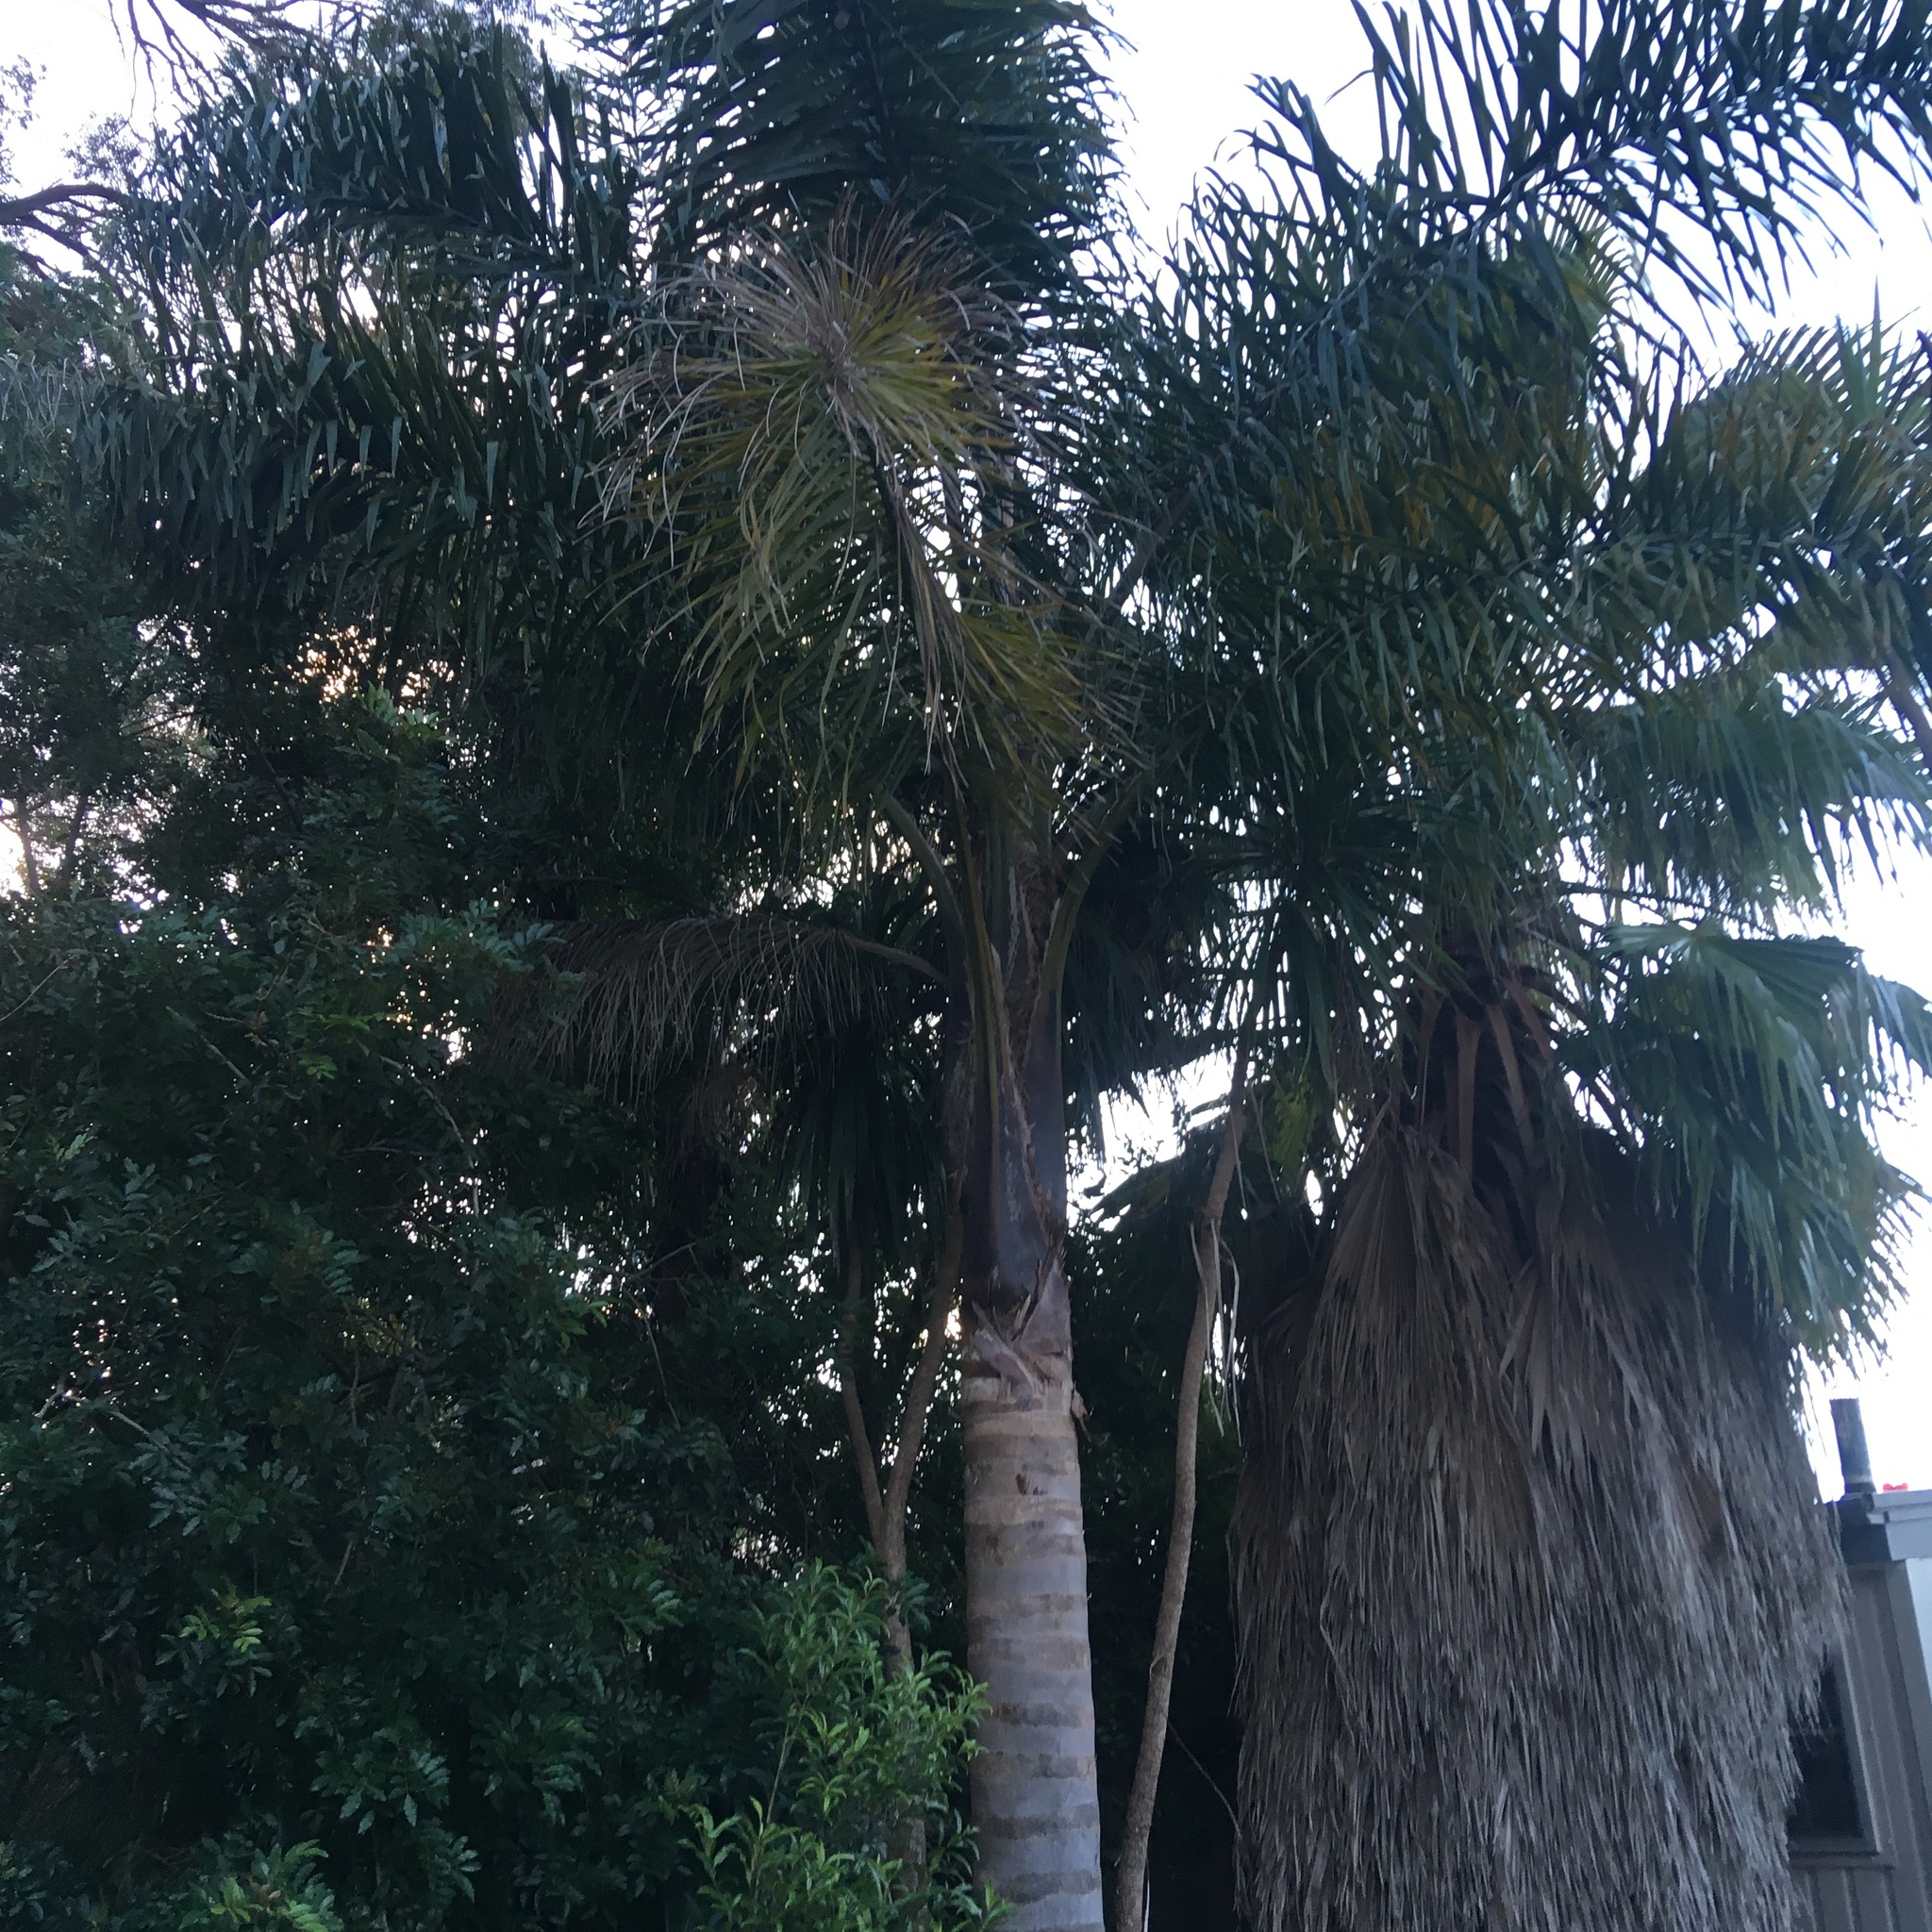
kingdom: Plantae
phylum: Tracheophyta
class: Liliopsida
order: Arecales
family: Arecaceae
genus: Syagrus
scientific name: Syagrus romanzoffiana
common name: Queen palm
